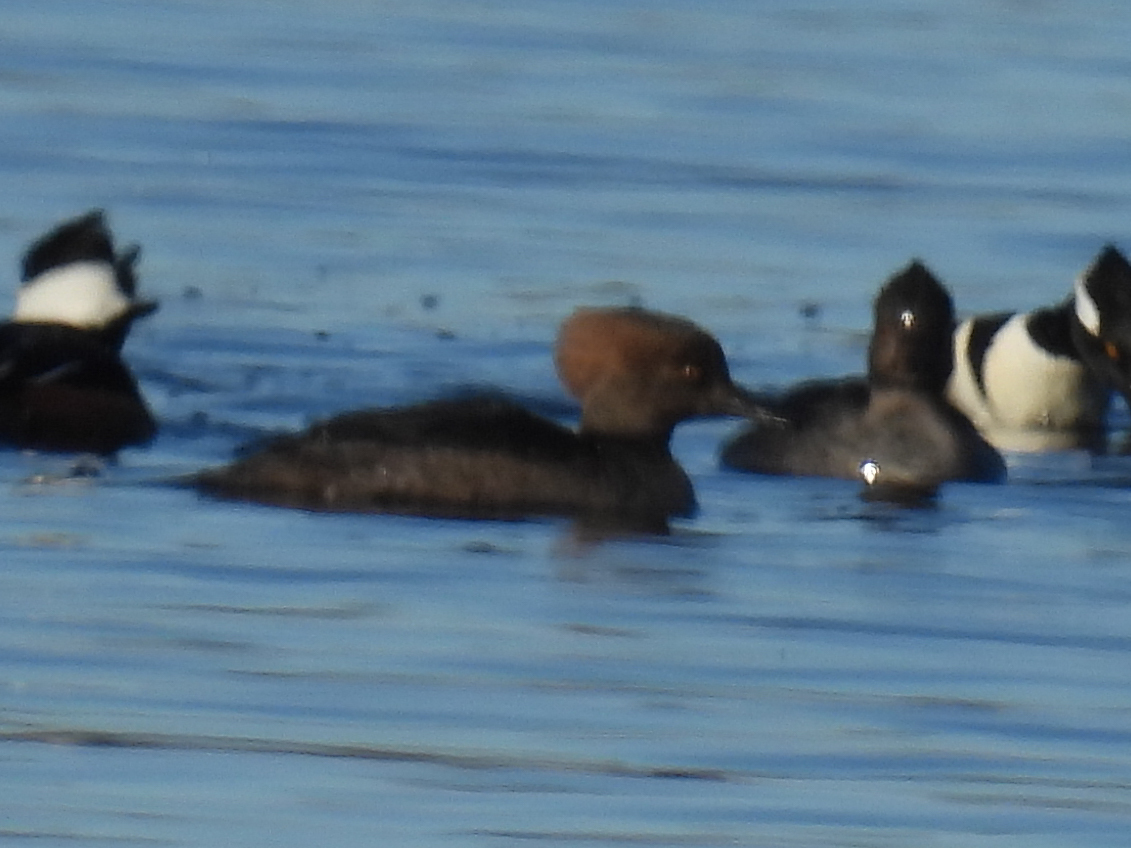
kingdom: Animalia
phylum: Chordata
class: Aves
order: Anseriformes
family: Anatidae
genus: Lophodytes
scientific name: Lophodytes cucullatus
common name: Hooded merganser
